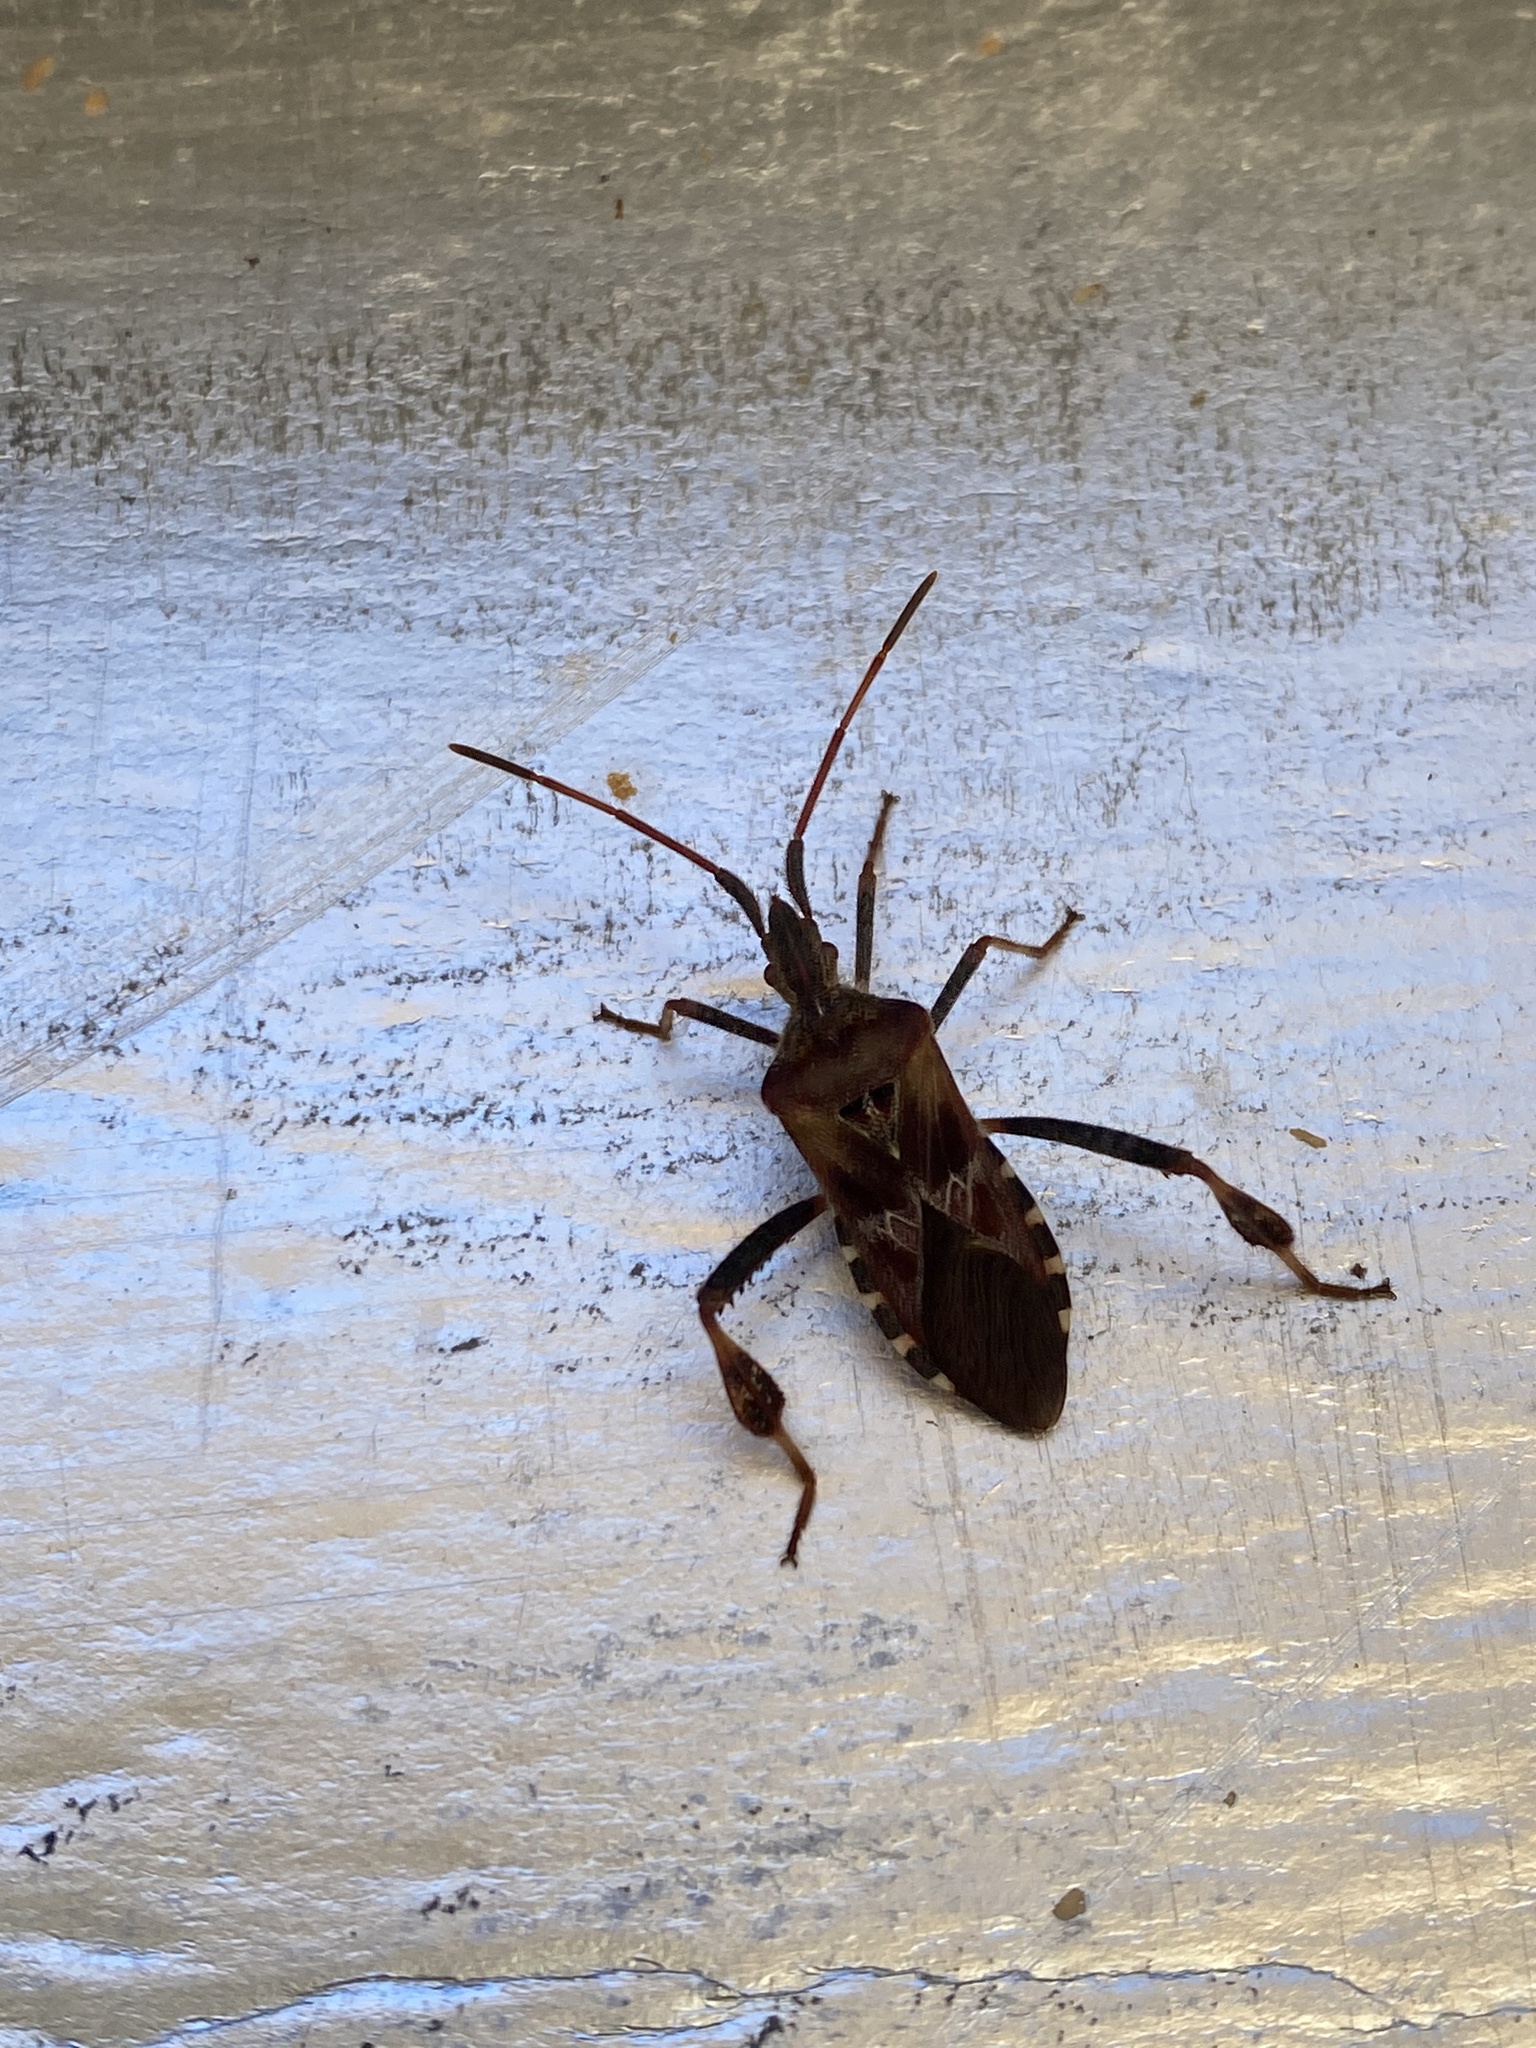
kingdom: Animalia
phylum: Arthropoda
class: Insecta
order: Hemiptera
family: Coreidae
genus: Leptoglossus
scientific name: Leptoglossus occidentalis
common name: Western conifer-seed bug
